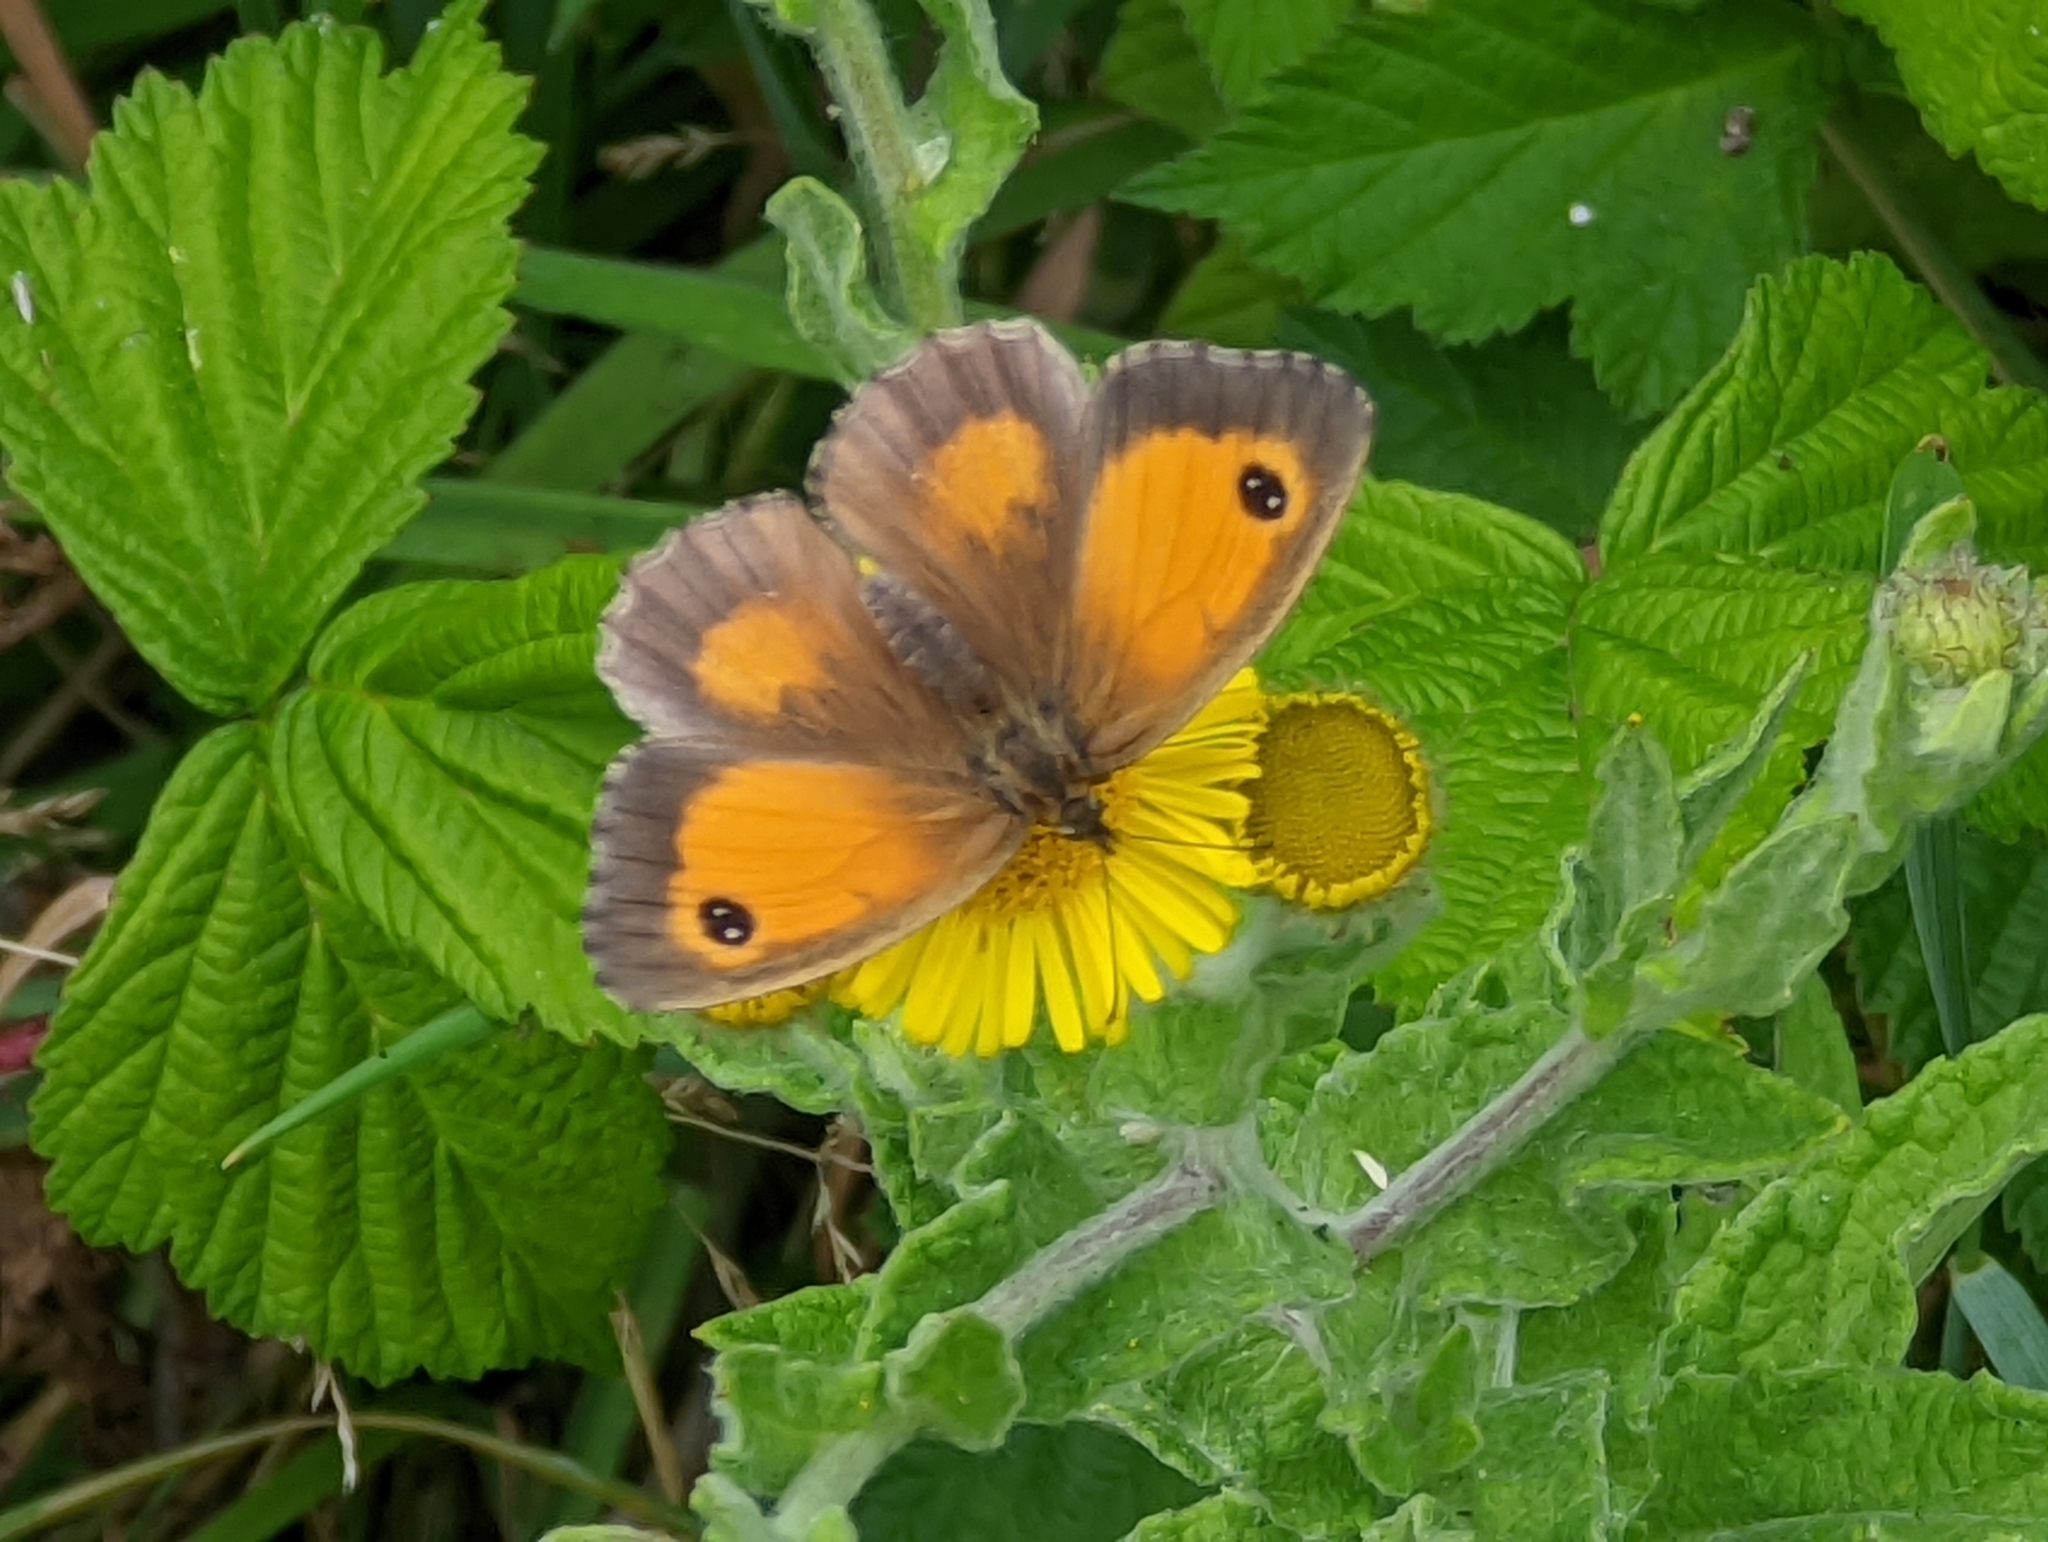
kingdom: Animalia
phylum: Arthropoda
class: Insecta
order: Lepidoptera
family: Nymphalidae
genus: Pyronia
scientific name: Pyronia tithonus
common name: Gatekeeper
